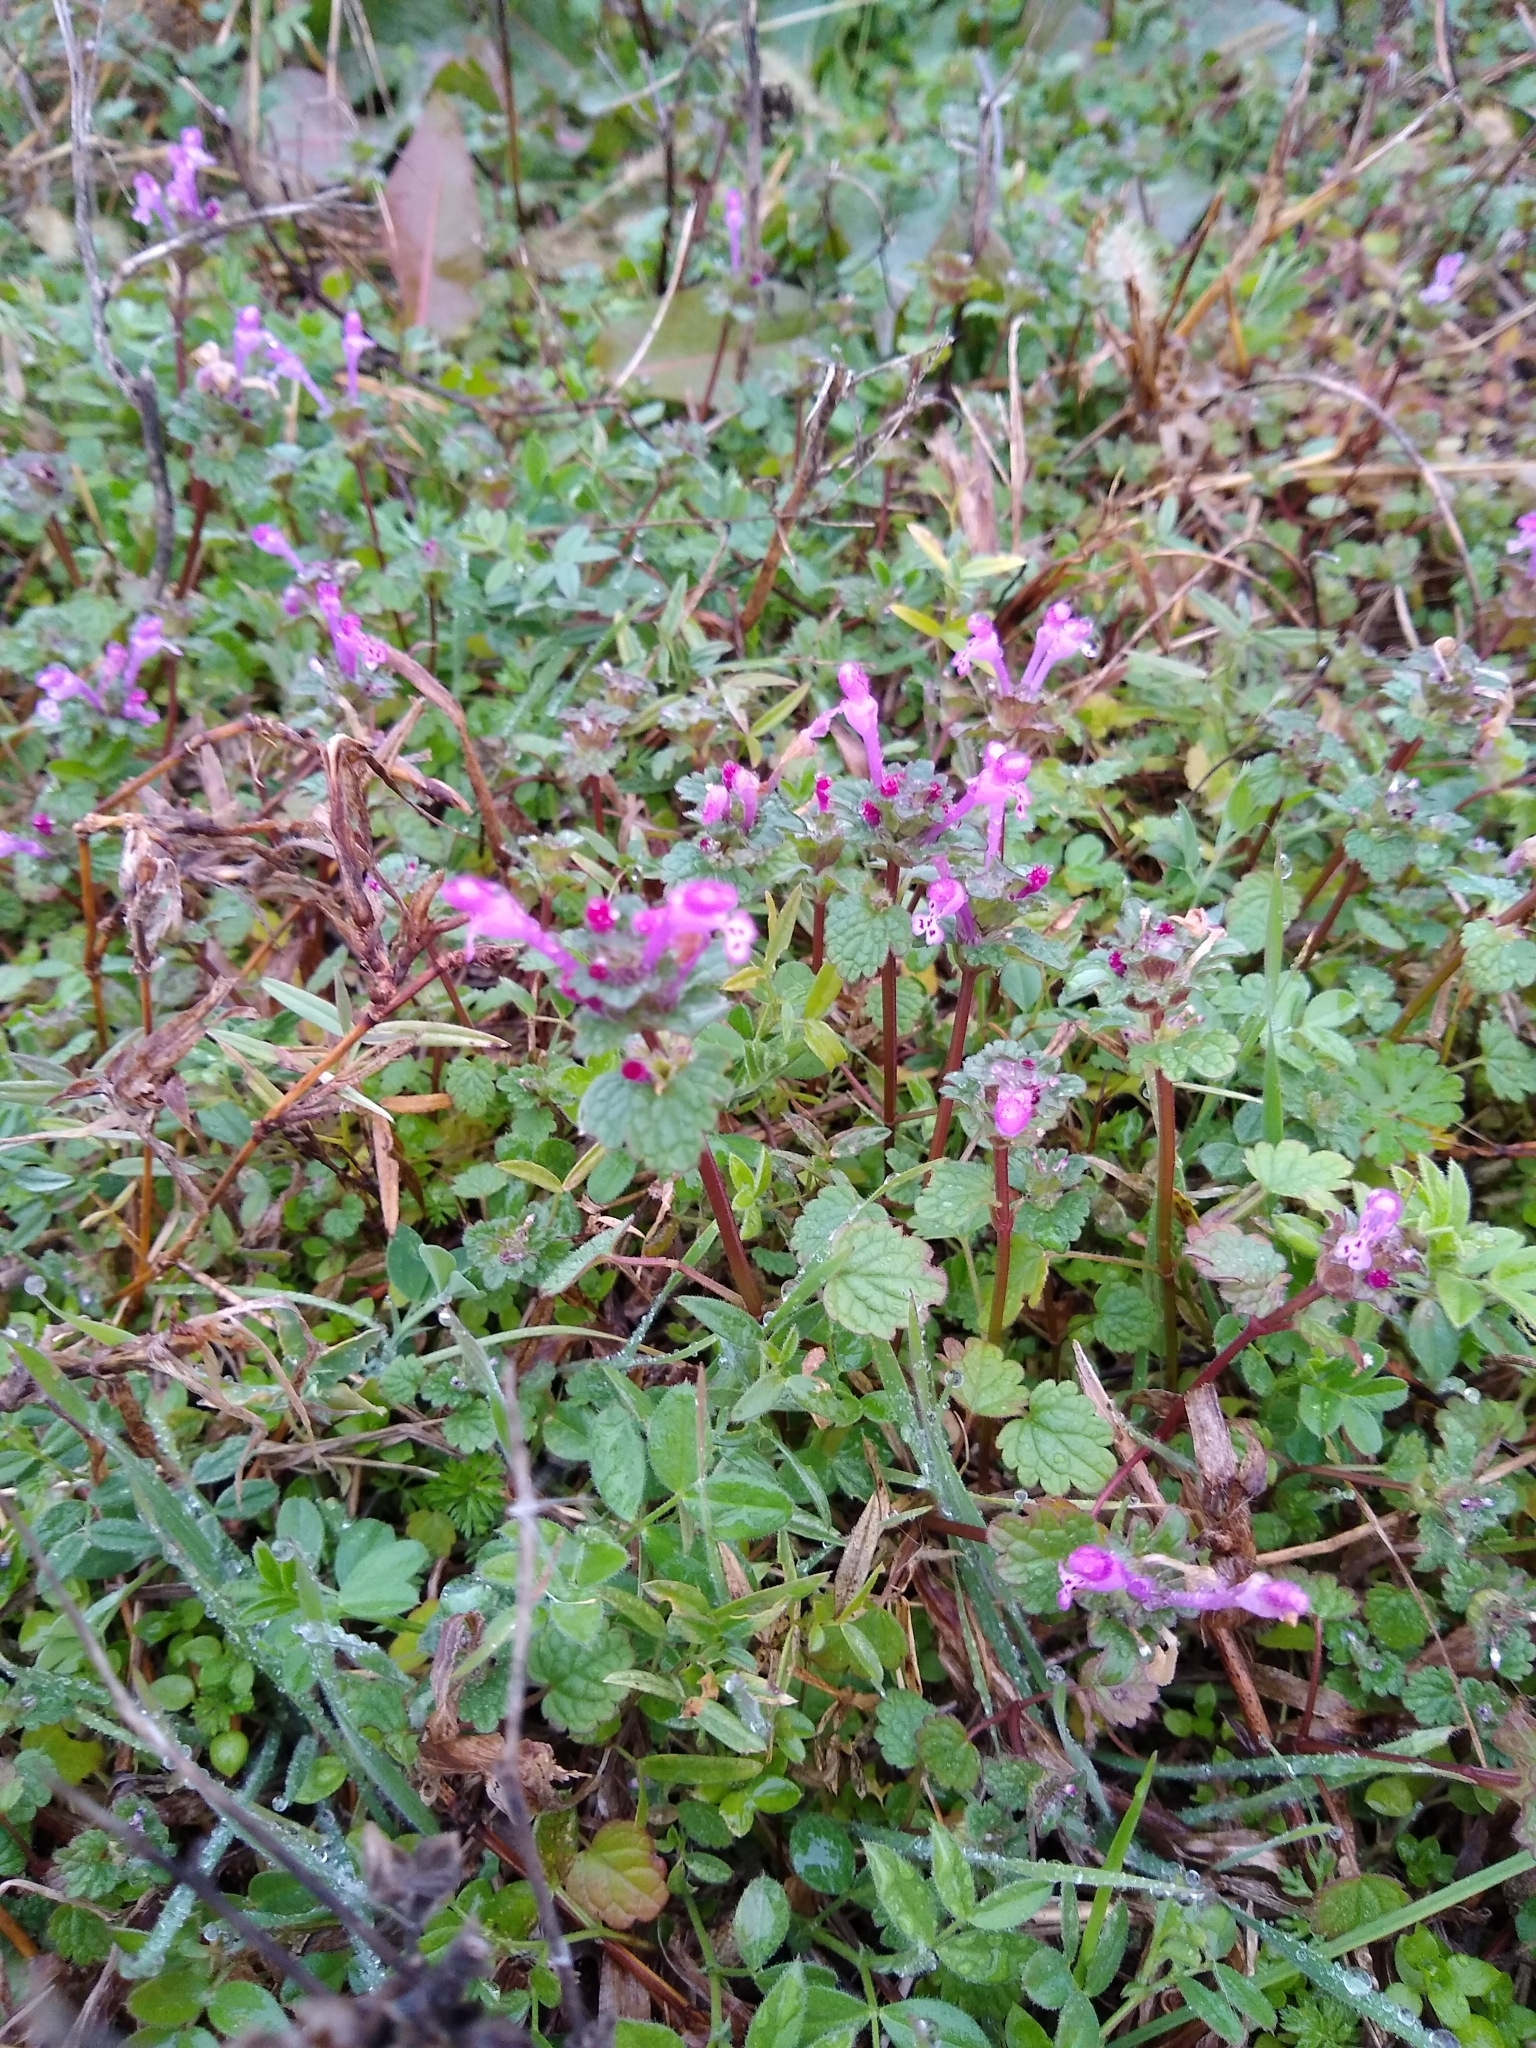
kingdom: Plantae
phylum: Tracheophyta
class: Magnoliopsida
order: Lamiales
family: Lamiaceae
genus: Lamium
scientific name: Lamium amplexicaule
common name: Henbit dead-nettle
